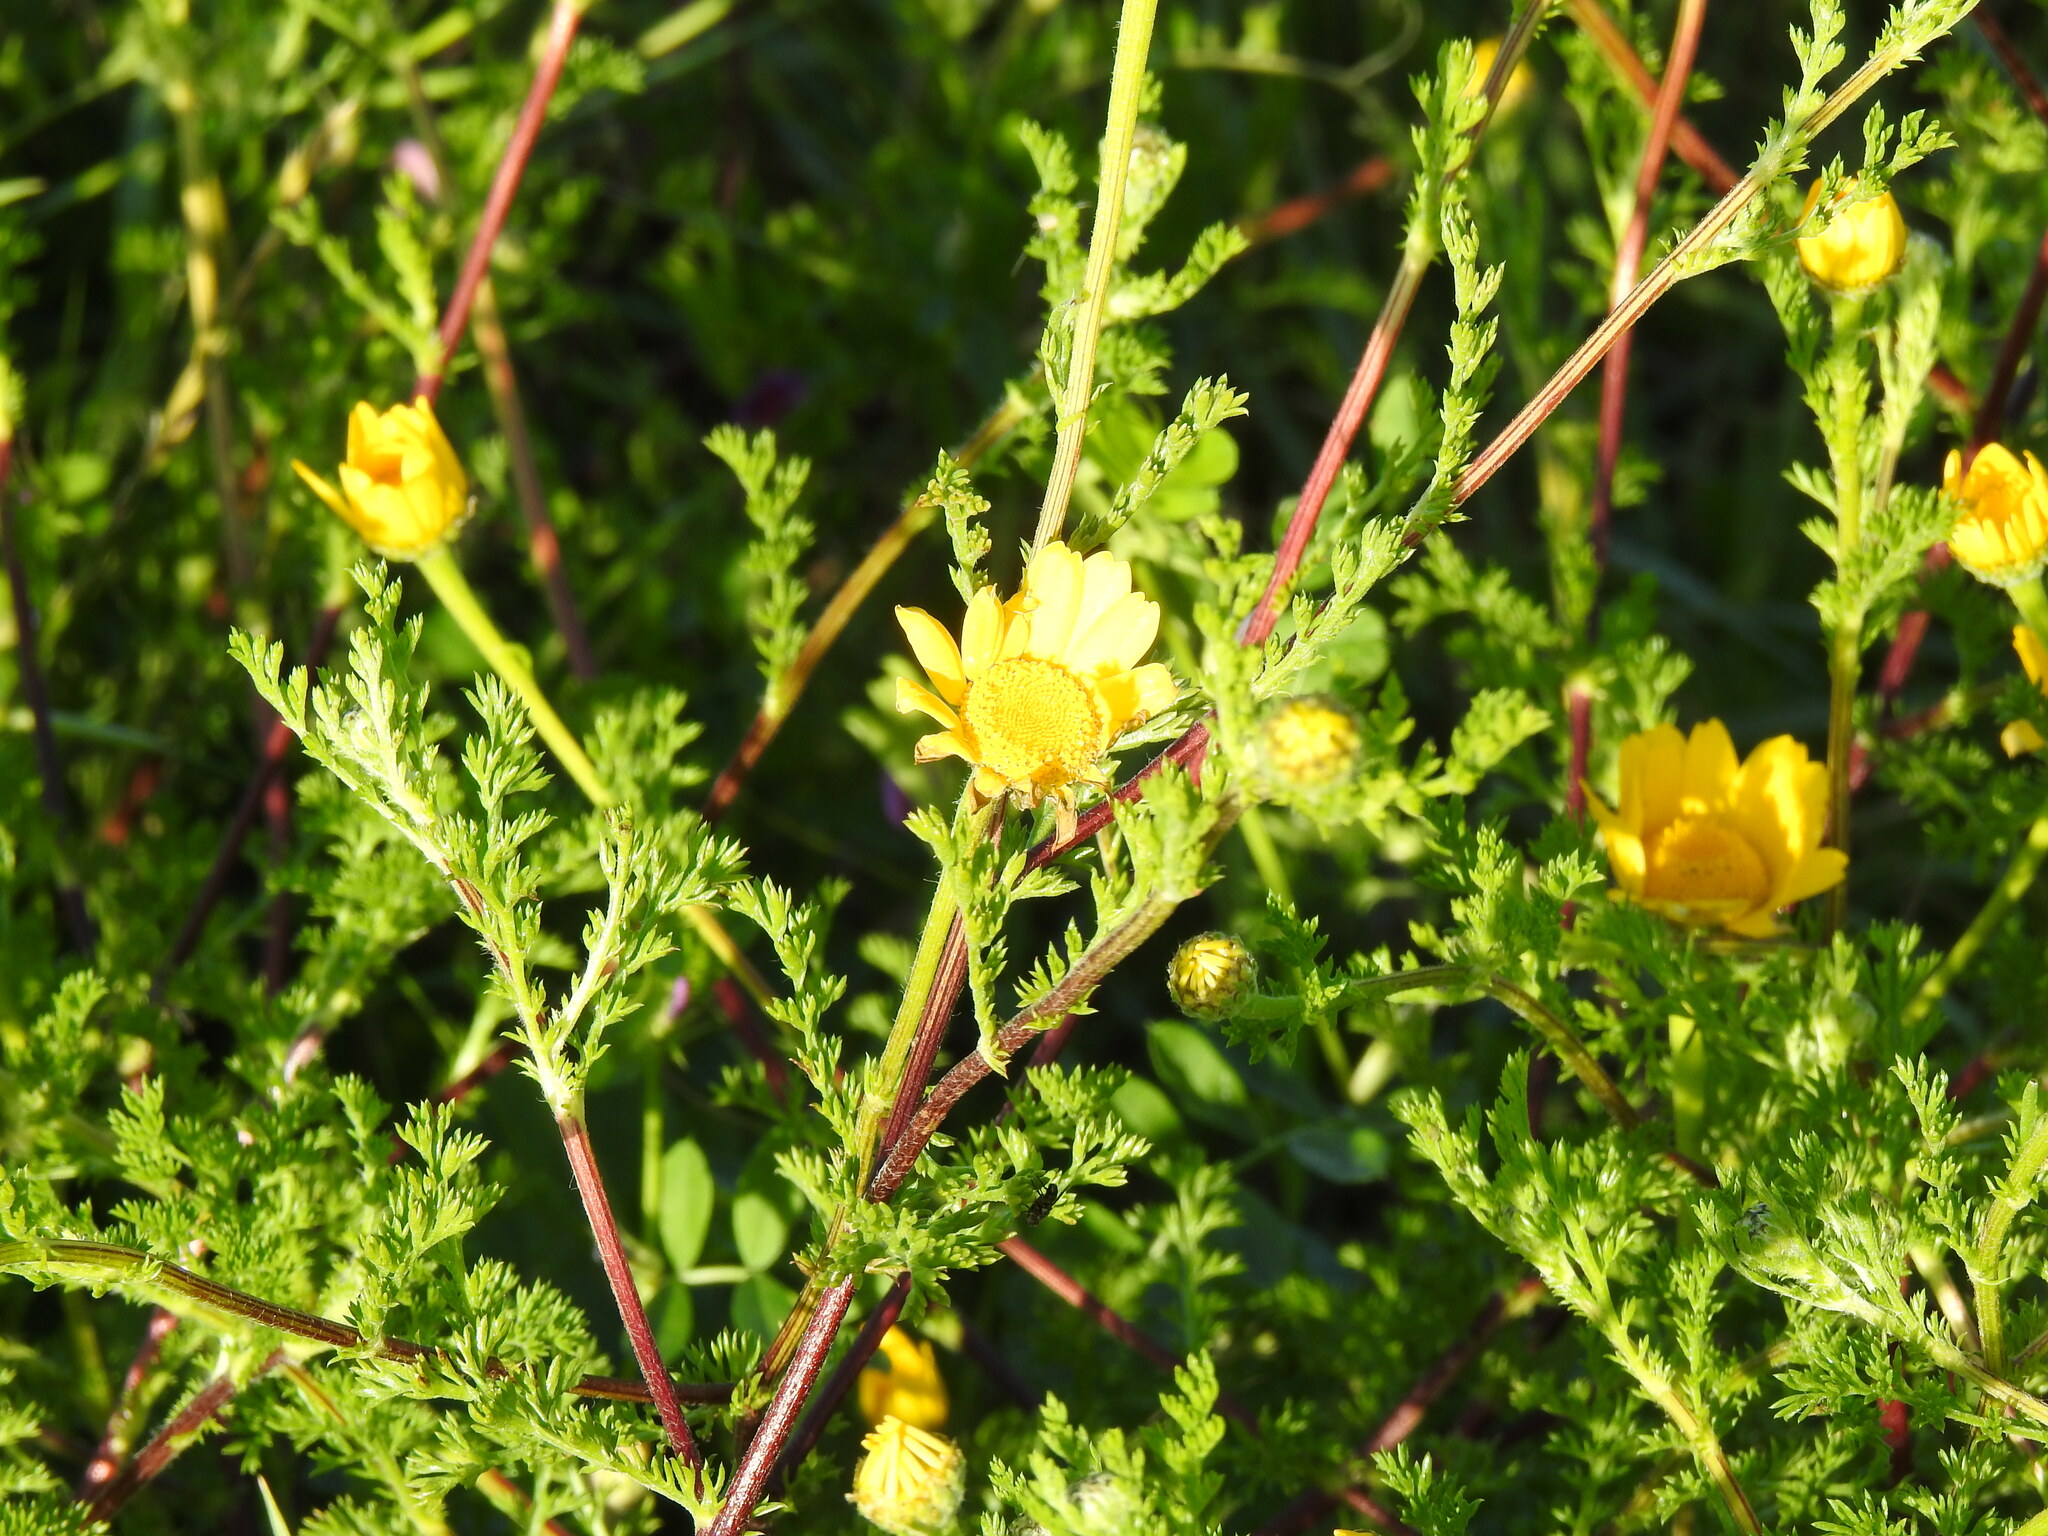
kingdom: Plantae
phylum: Tracheophyta
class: Magnoliopsida
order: Asterales
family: Asteraceae
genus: Anacyclus
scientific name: Anacyclus radiatus
